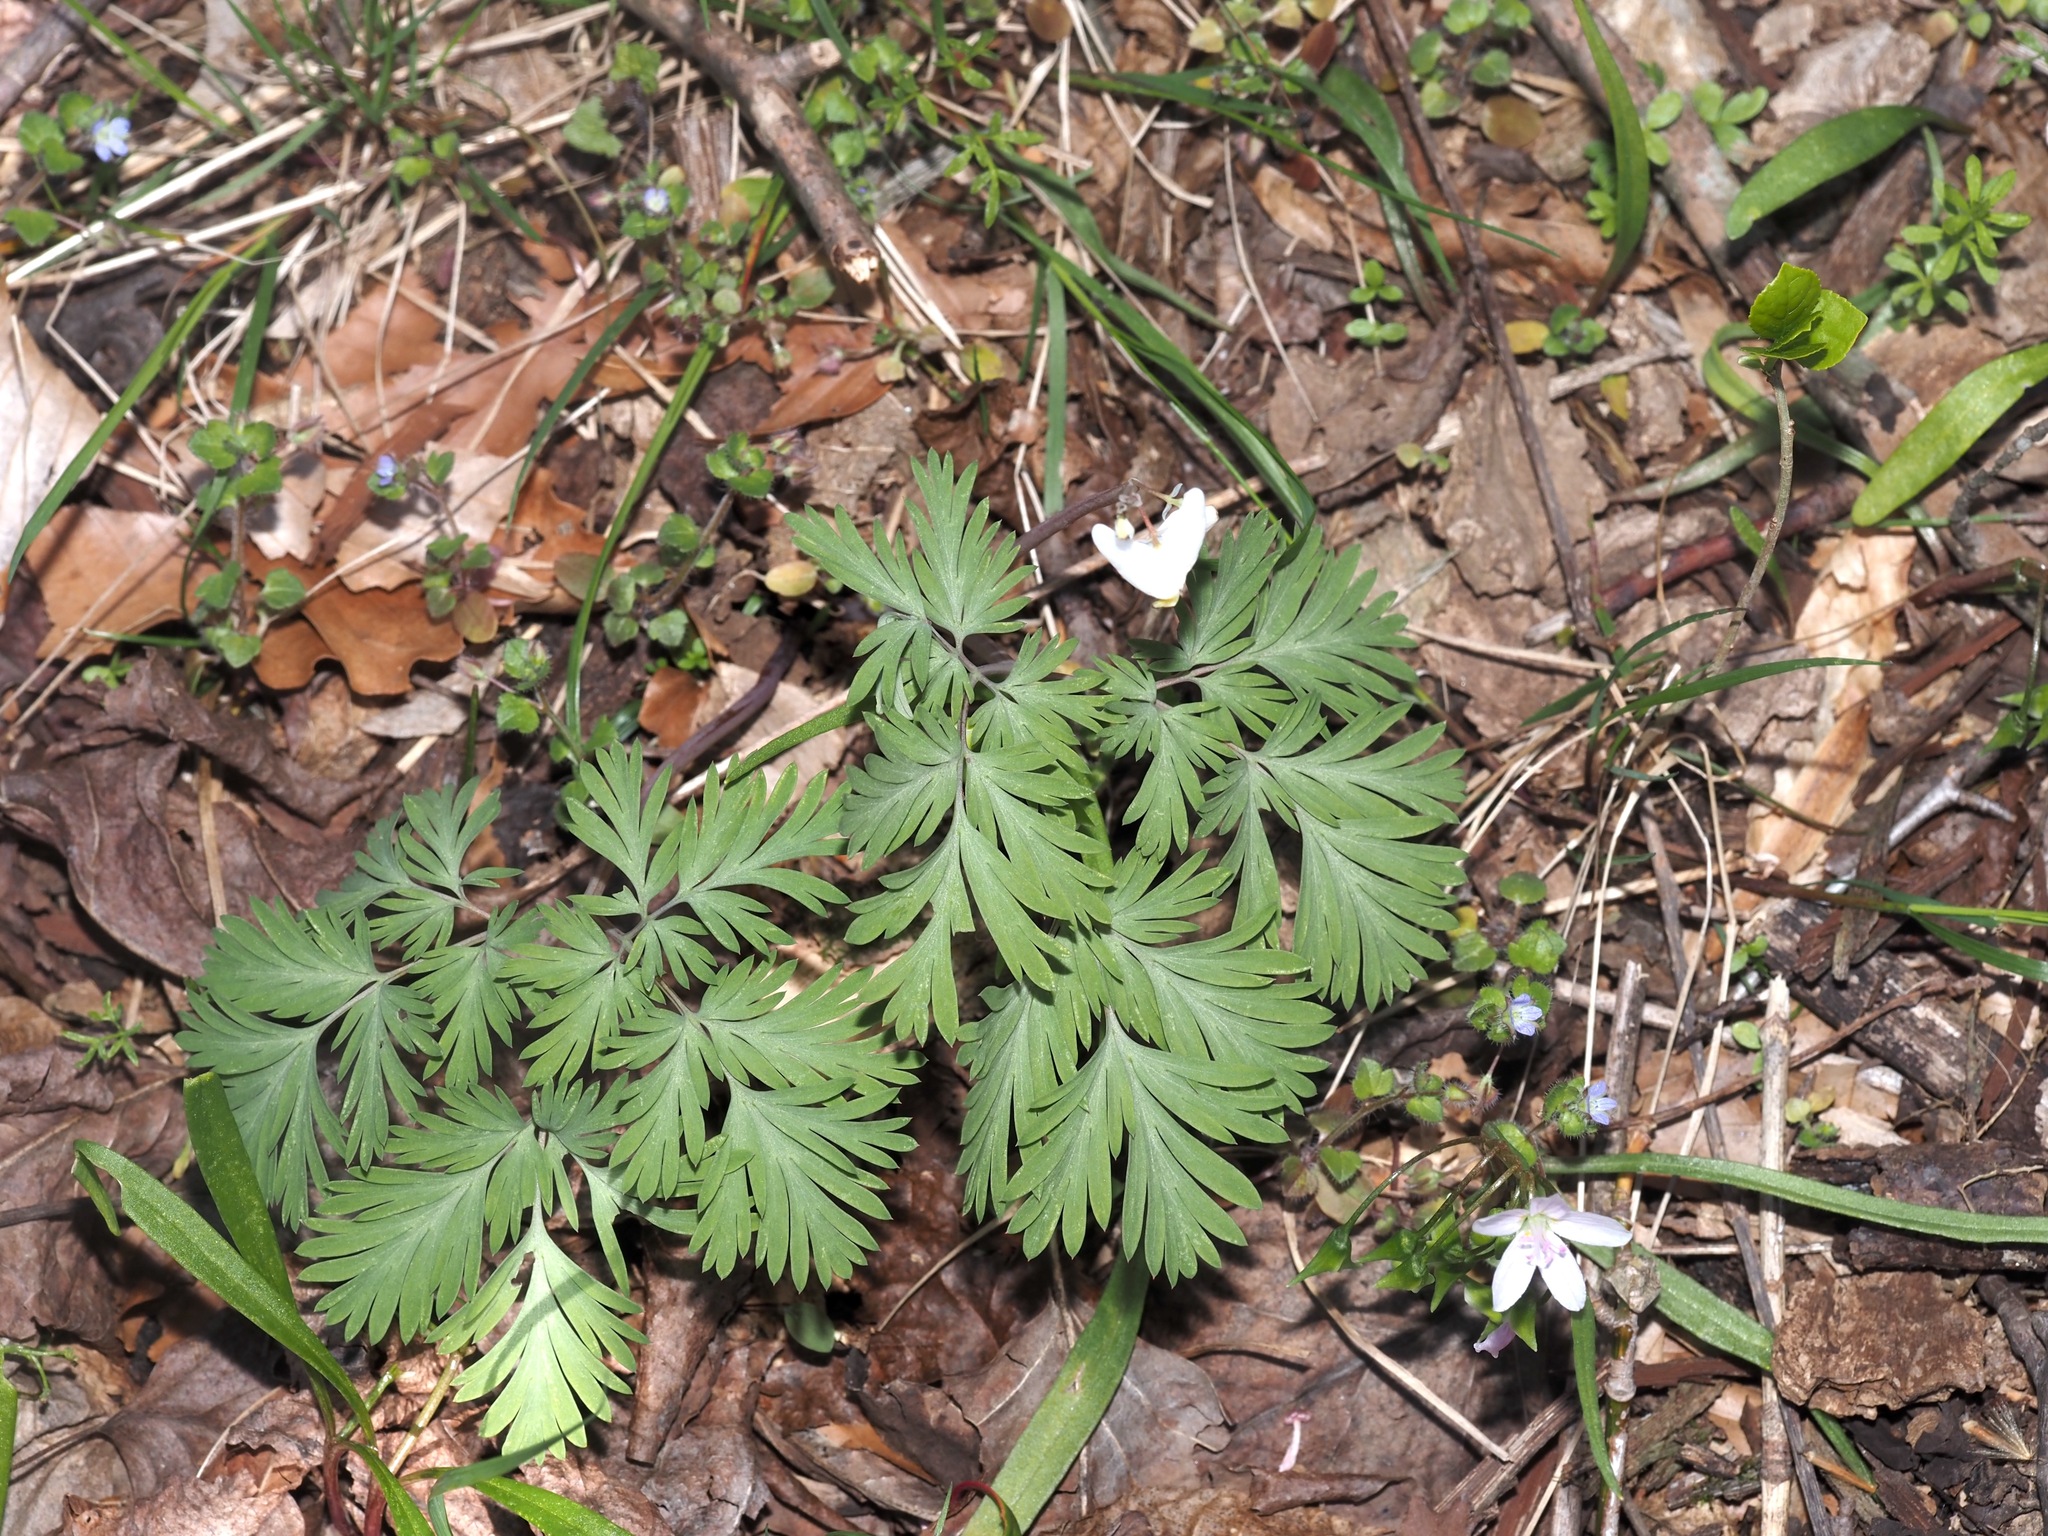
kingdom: Plantae
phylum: Tracheophyta
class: Magnoliopsida
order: Ranunculales
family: Papaveraceae
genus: Dicentra
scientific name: Dicentra cucullaria
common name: Dutchman's breeches
